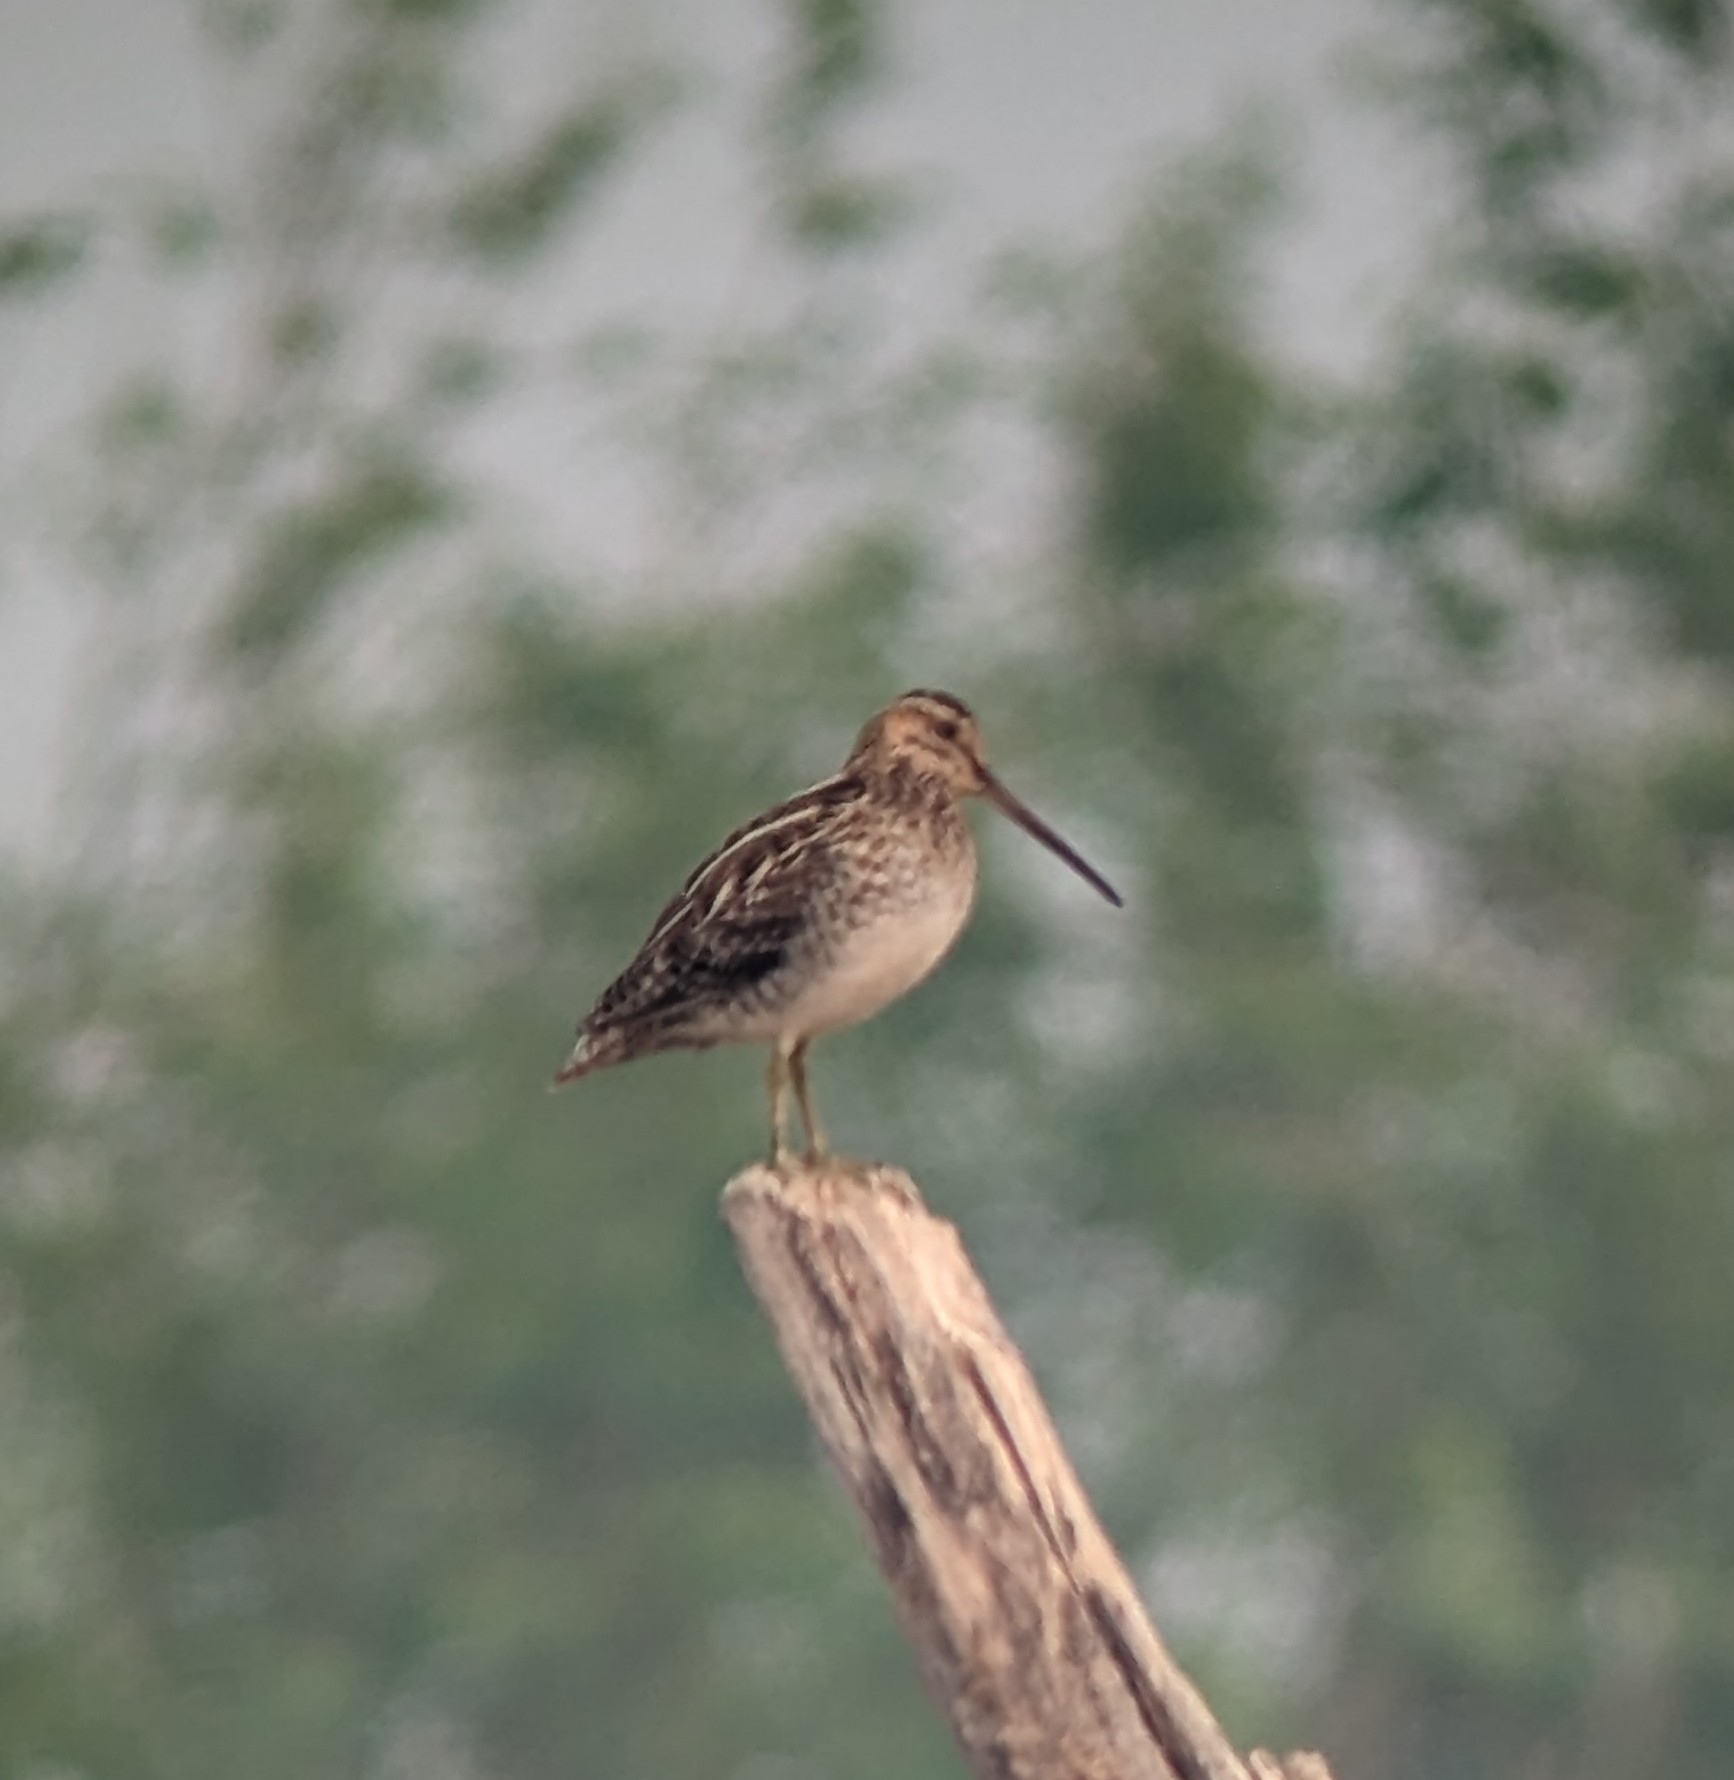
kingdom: Animalia
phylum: Chordata
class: Aves
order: Charadriiformes
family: Scolopacidae
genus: Gallinago
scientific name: Gallinago delicata
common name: Wilson's snipe
